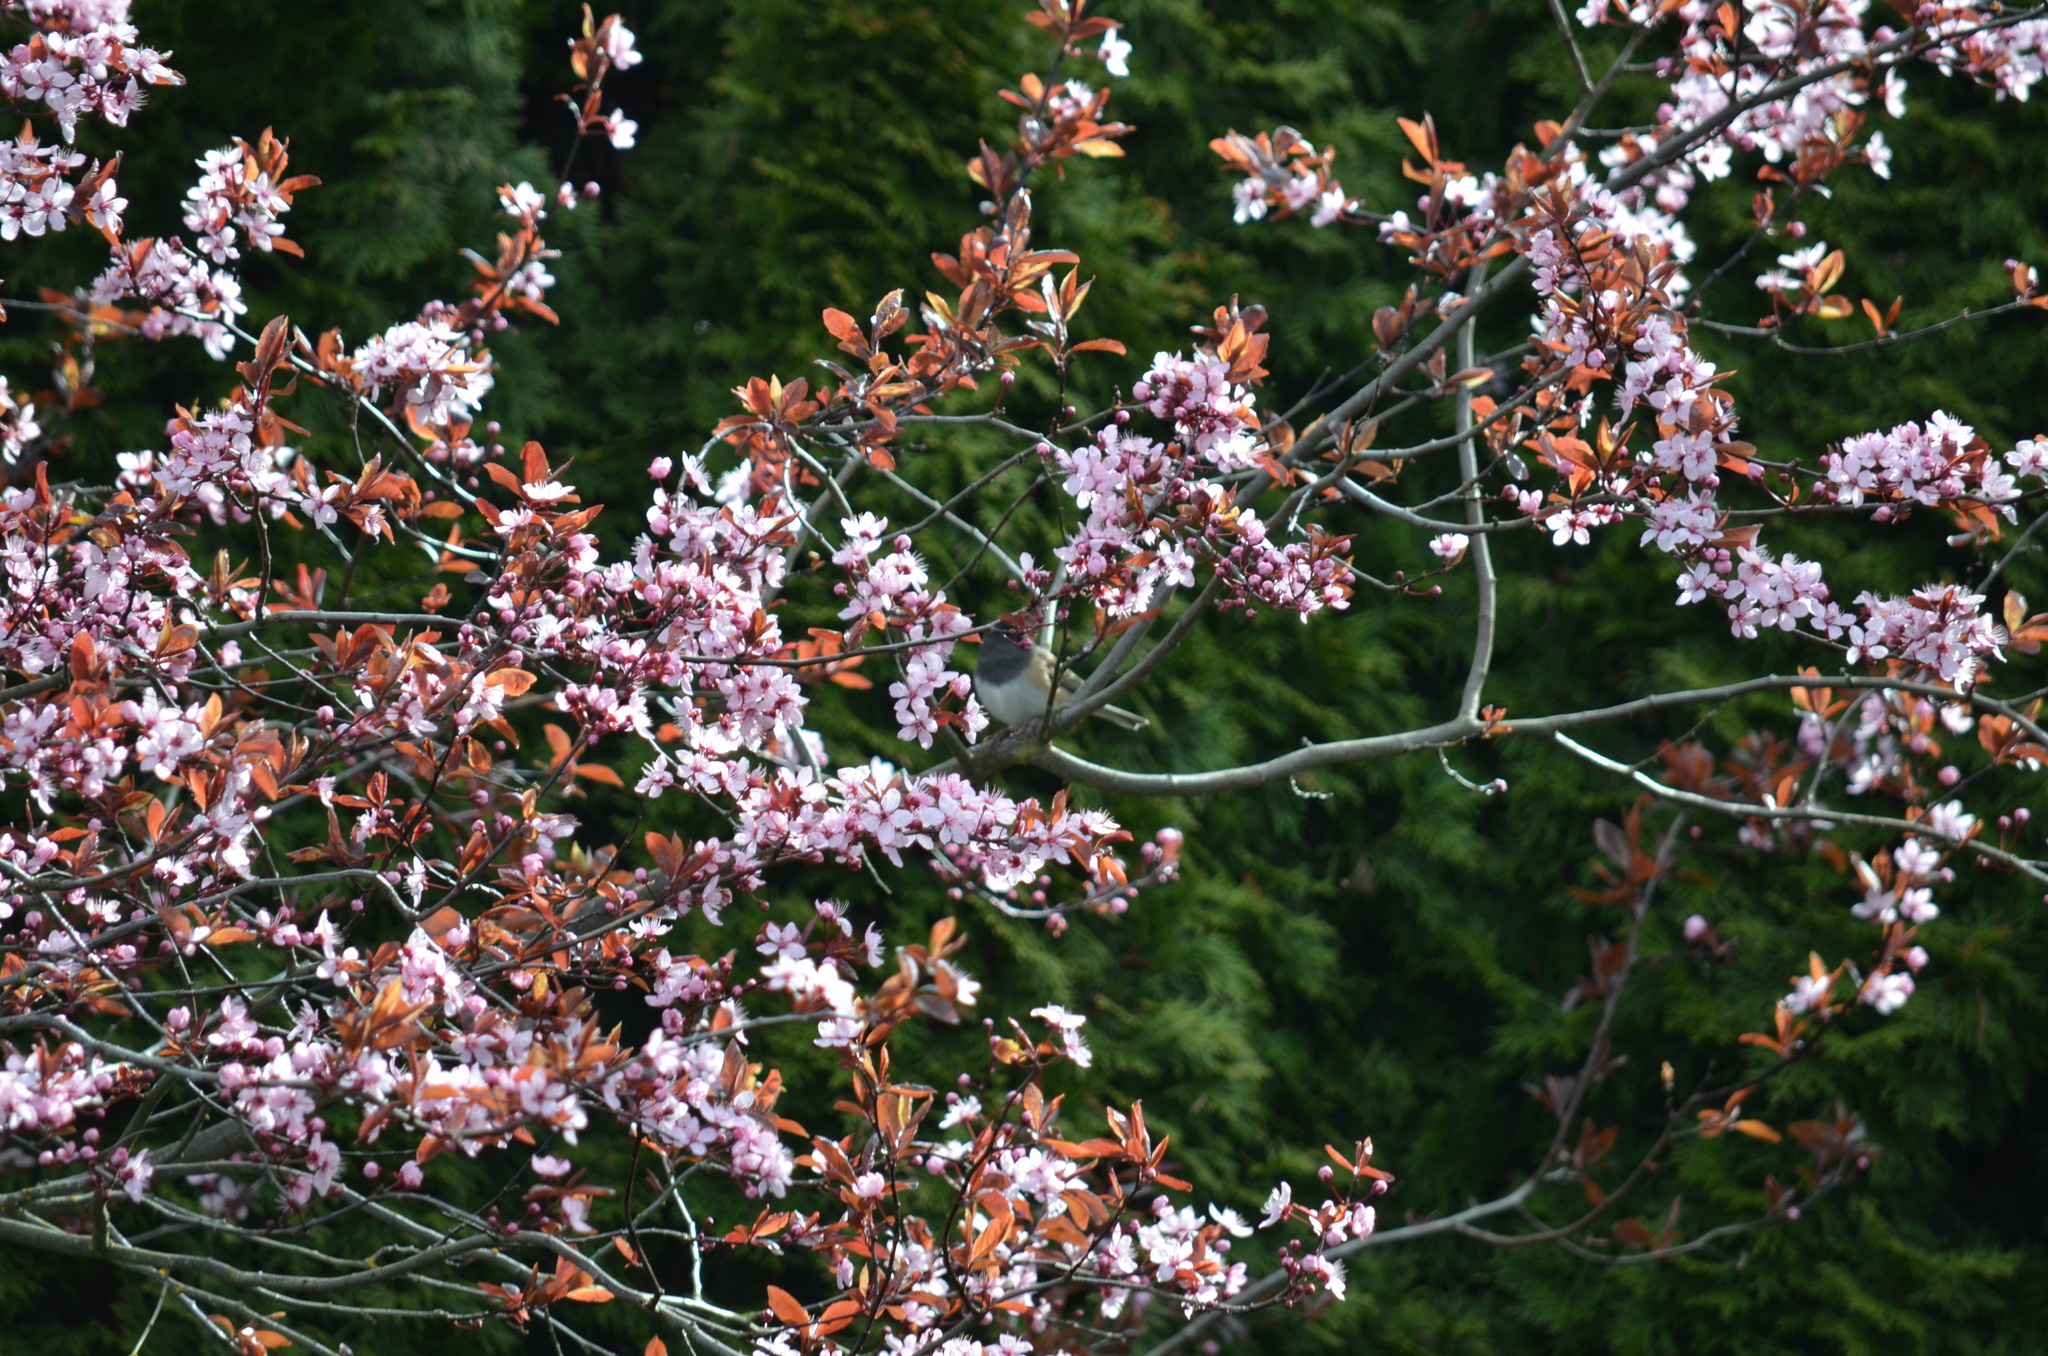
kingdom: Animalia
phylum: Chordata
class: Aves
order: Passeriformes
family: Passerellidae
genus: Junco
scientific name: Junco hyemalis
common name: Dark-eyed junco
